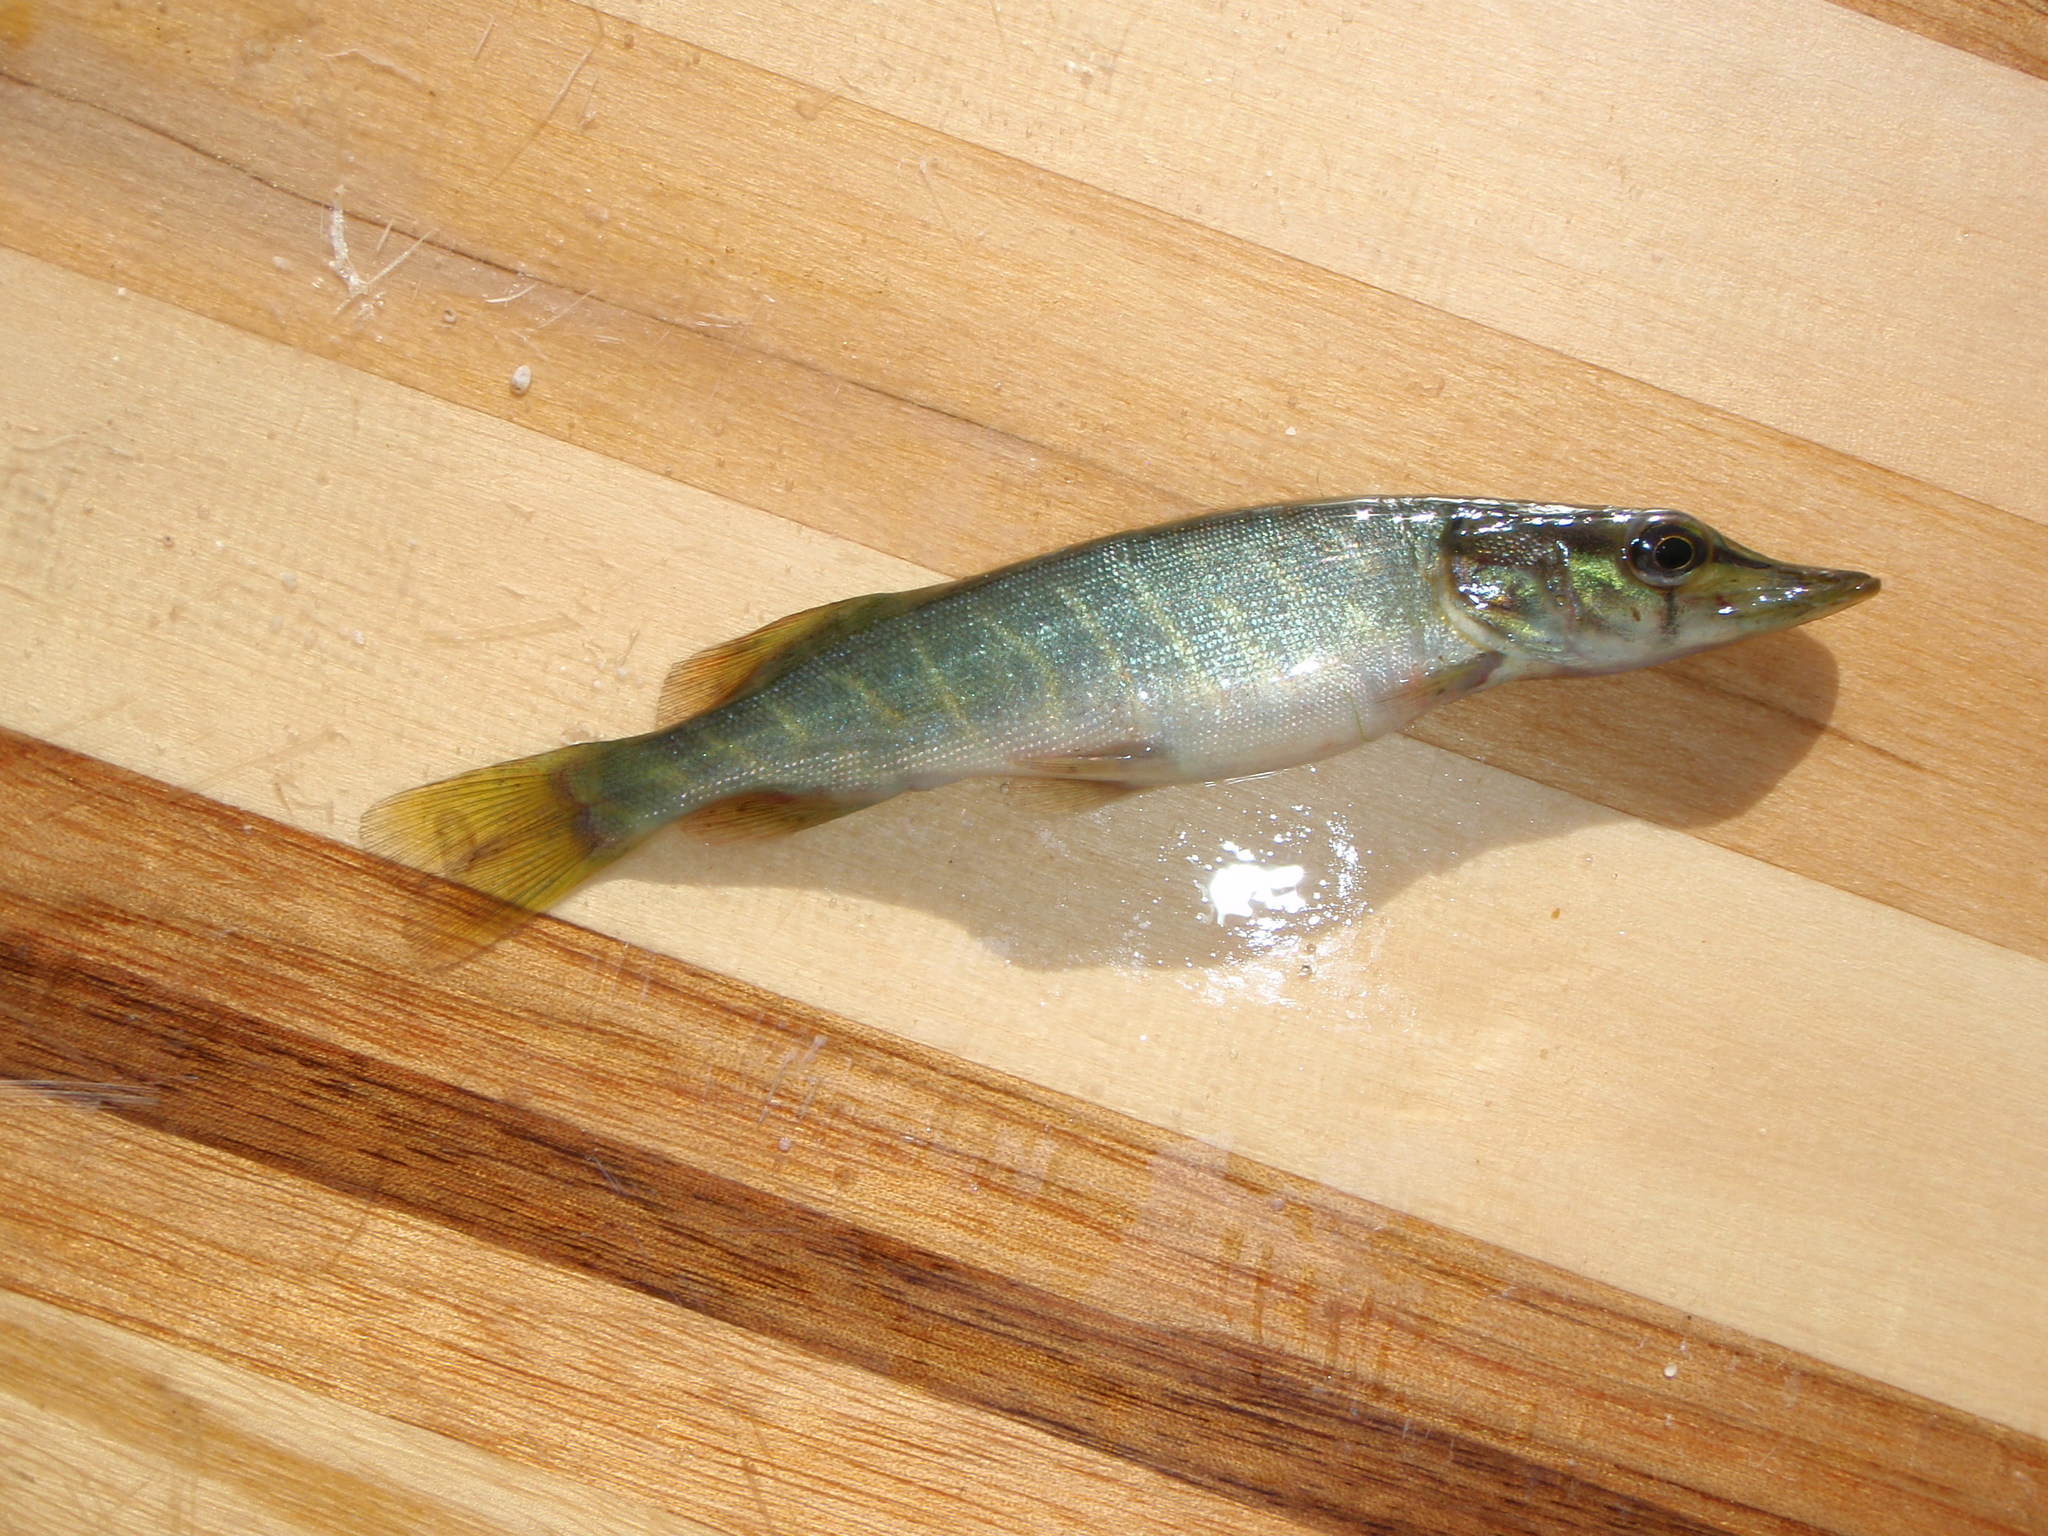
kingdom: Animalia
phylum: Chordata
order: Esociformes
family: Esocidae
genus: Esox
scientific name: Esox lucius
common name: Northern pike
